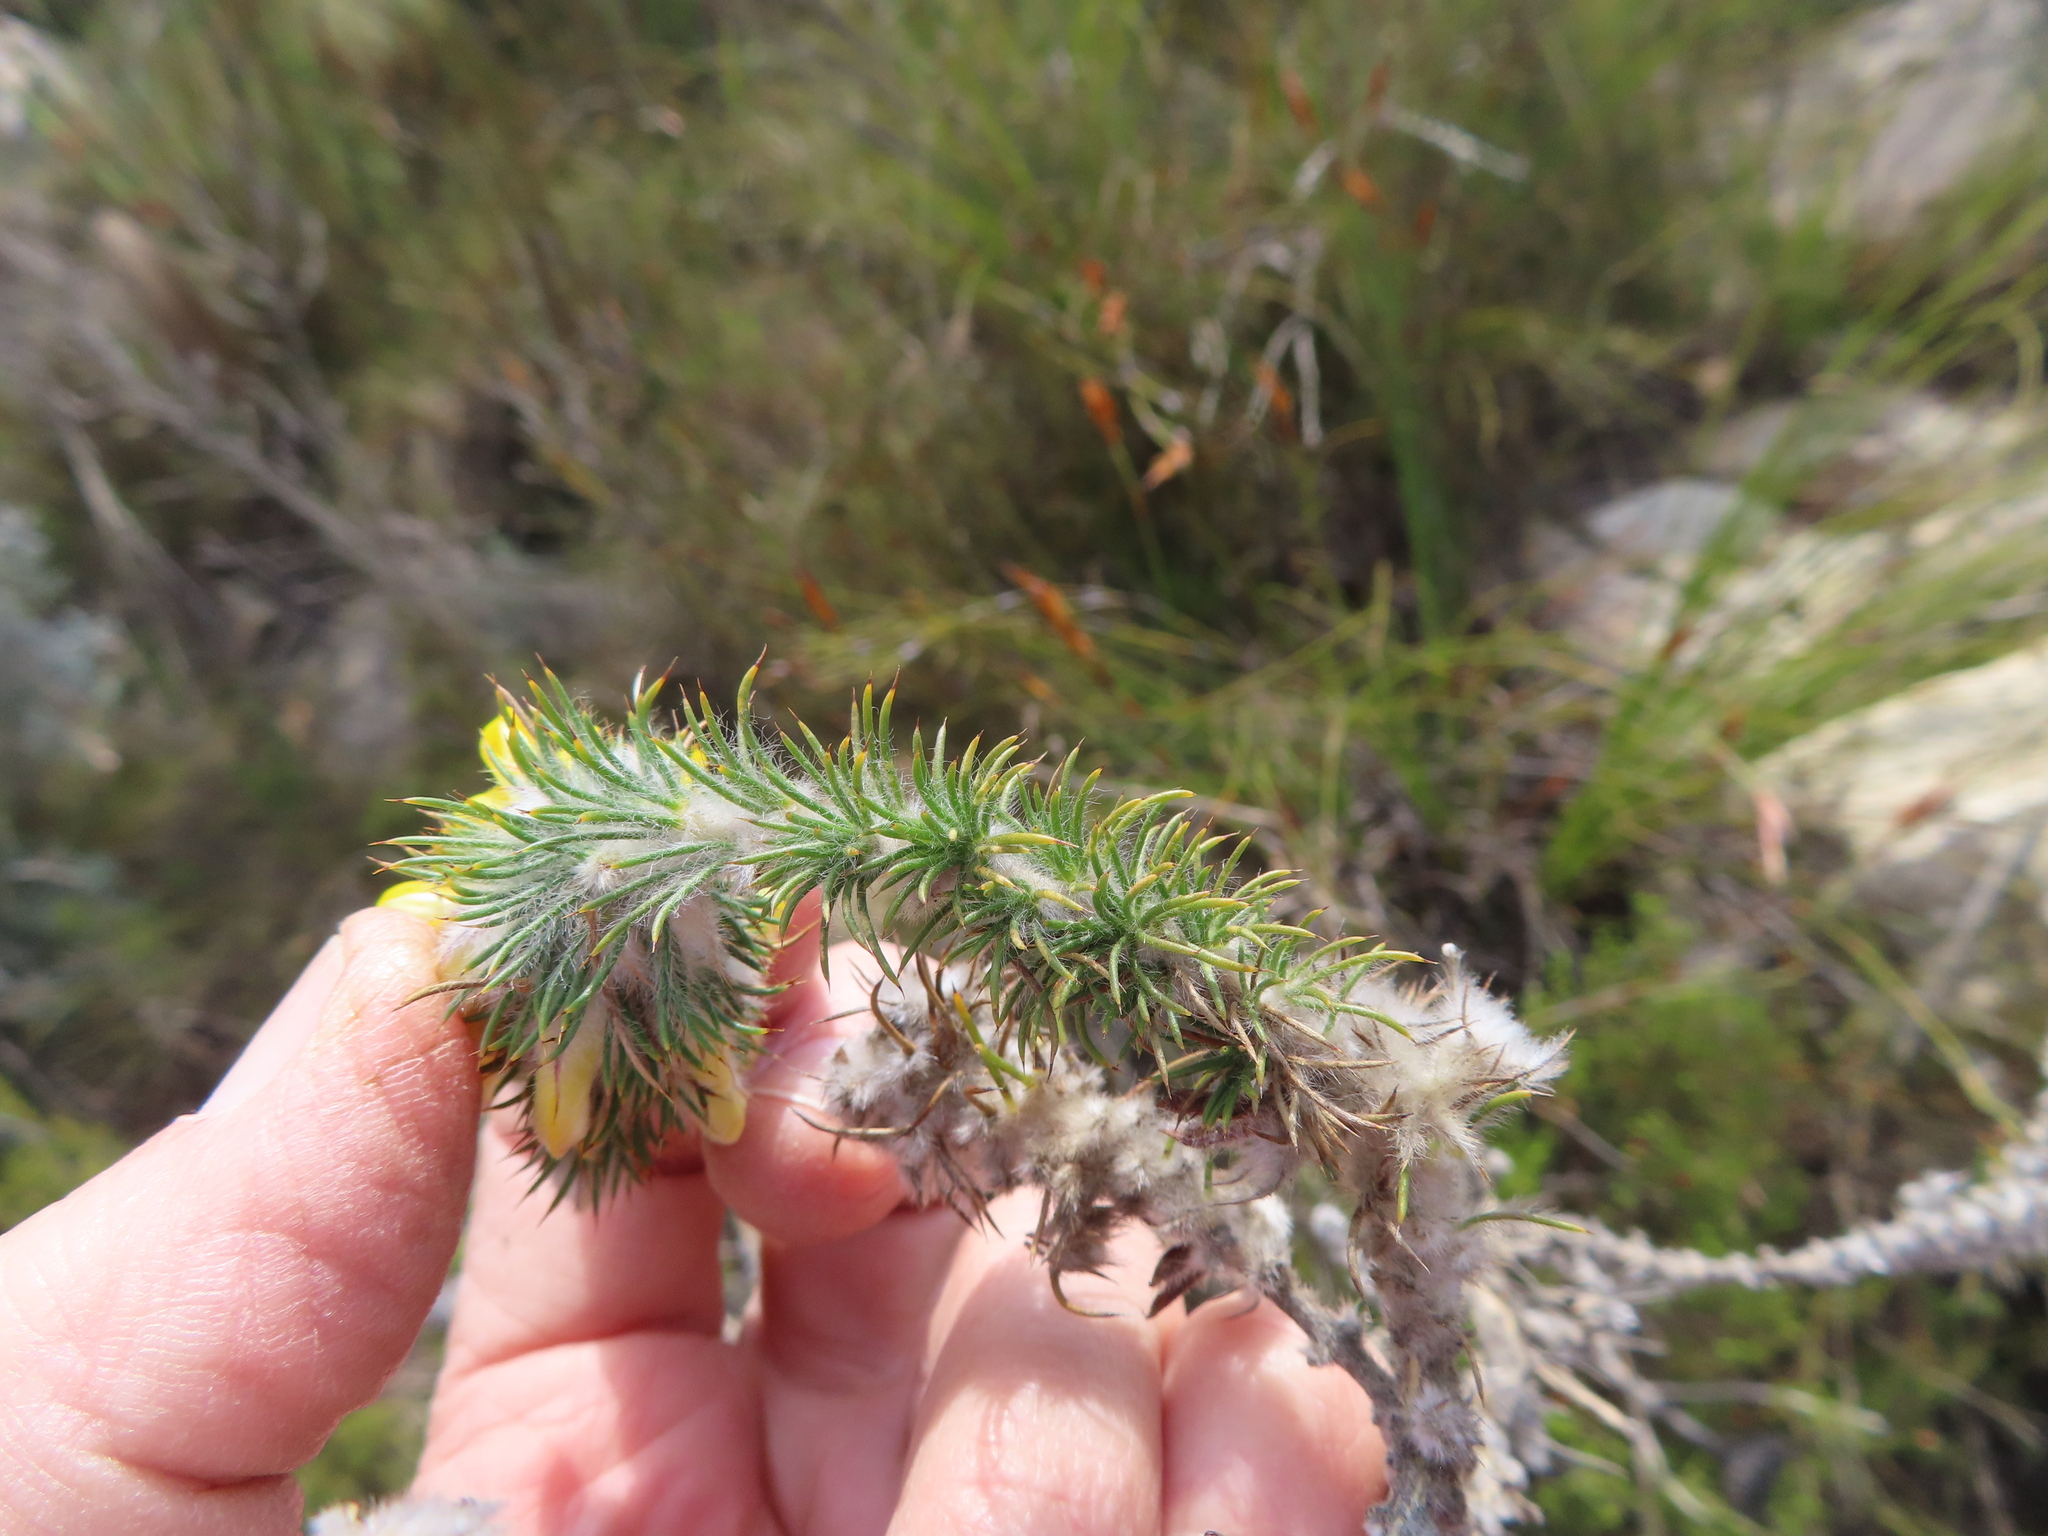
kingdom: Plantae
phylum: Tracheophyta
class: Magnoliopsida
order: Fabales
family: Fabaceae
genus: Aspalathus
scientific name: Aspalathus shawii
